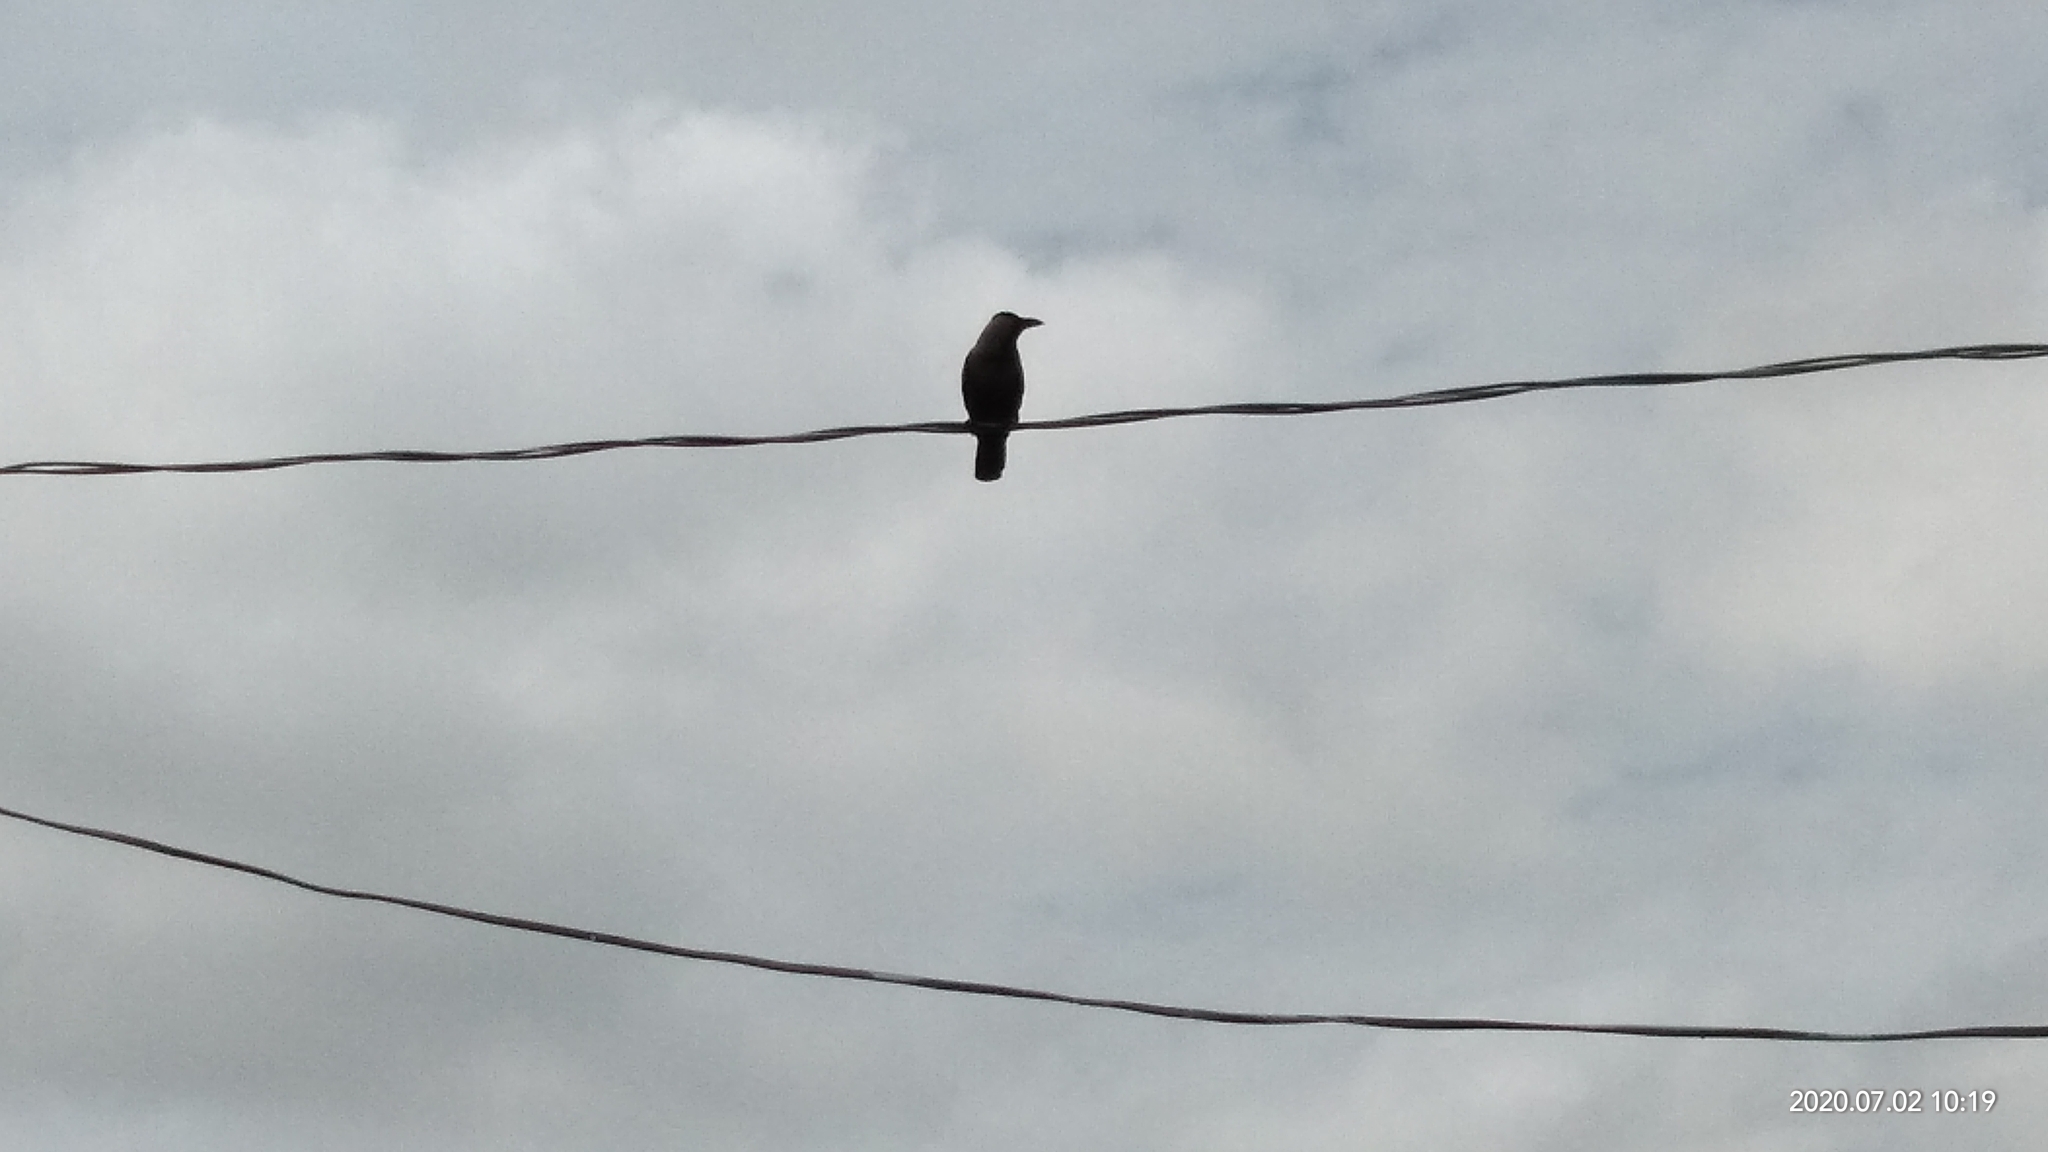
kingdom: Animalia
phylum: Chordata
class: Aves
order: Passeriformes
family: Corvidae
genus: Corvus
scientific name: Corvus splendens
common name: House crow
